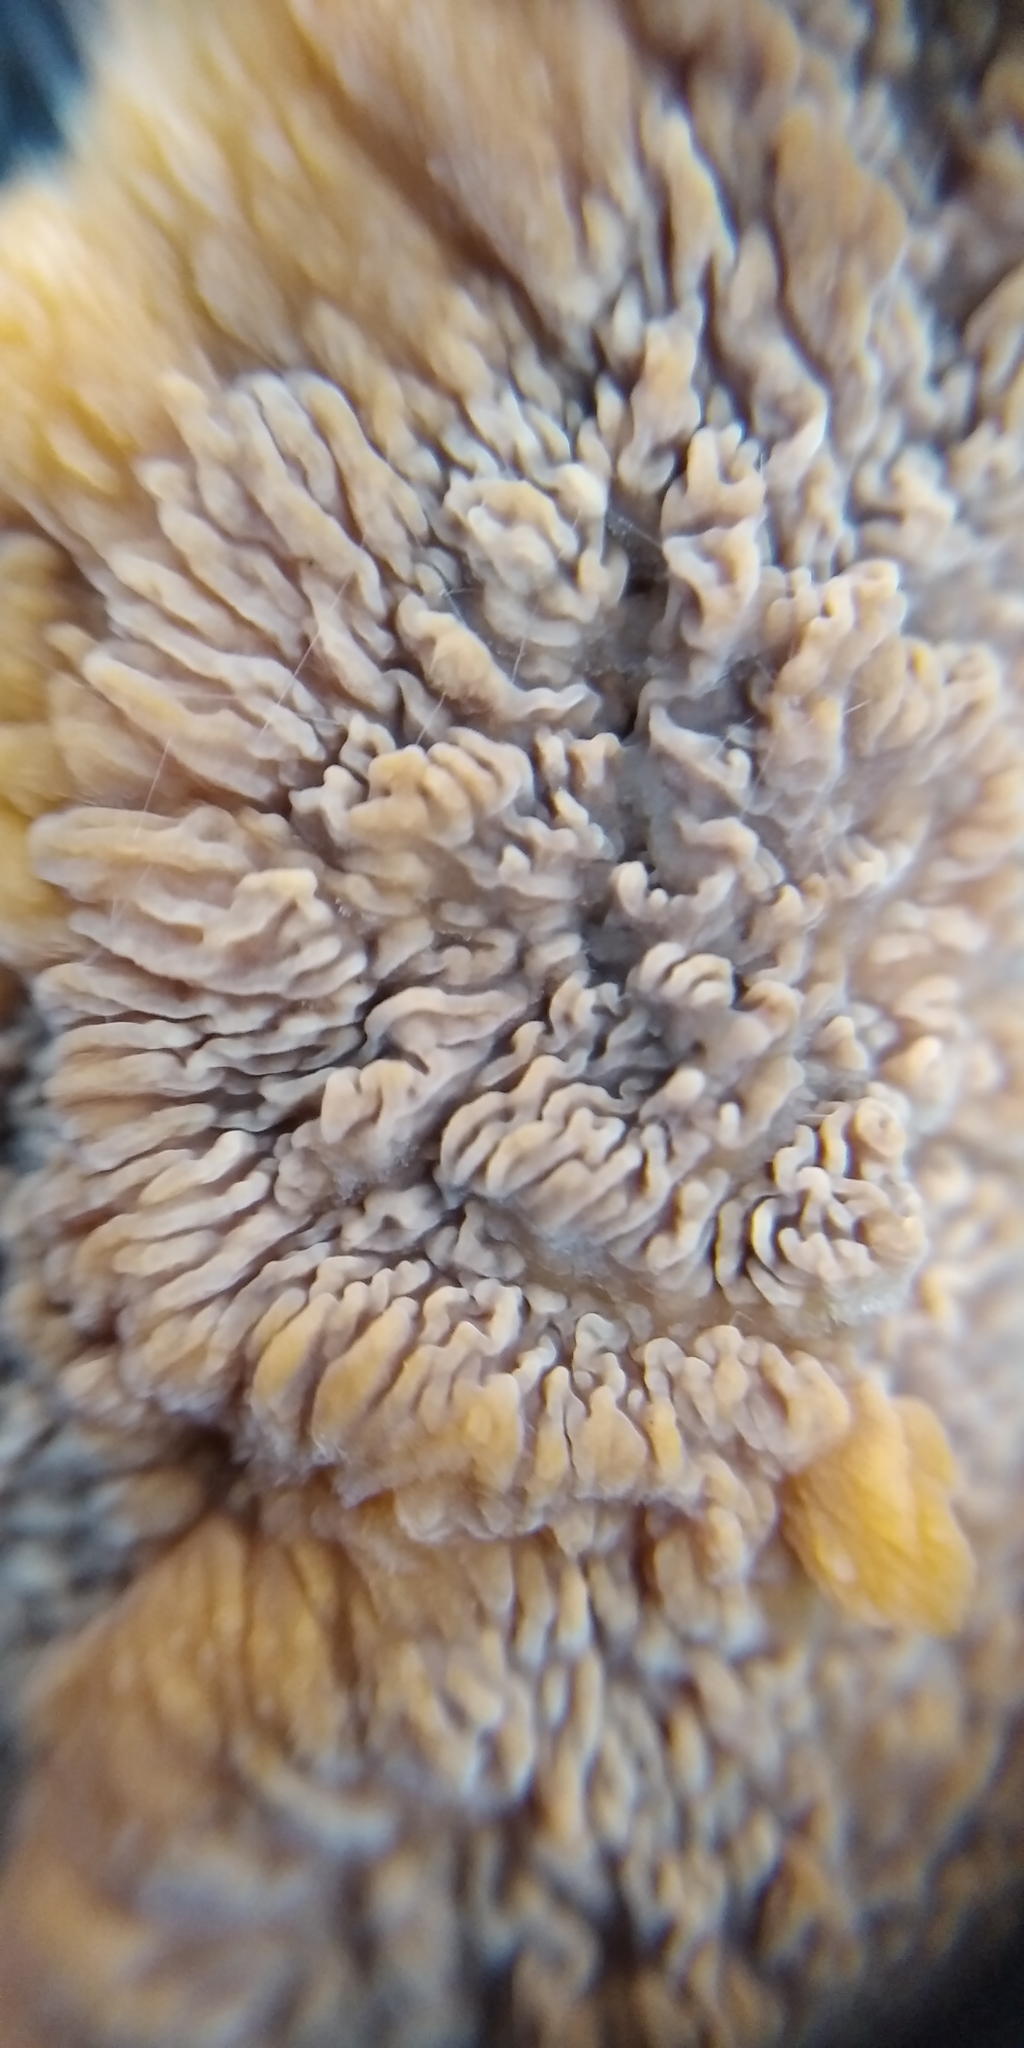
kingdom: Fungi
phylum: Basidiomycota
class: Agaricomycetes
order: Polyporales
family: Meruliaceae
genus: Phlebia
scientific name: Phlebia radiata
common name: Wrinkled crust
